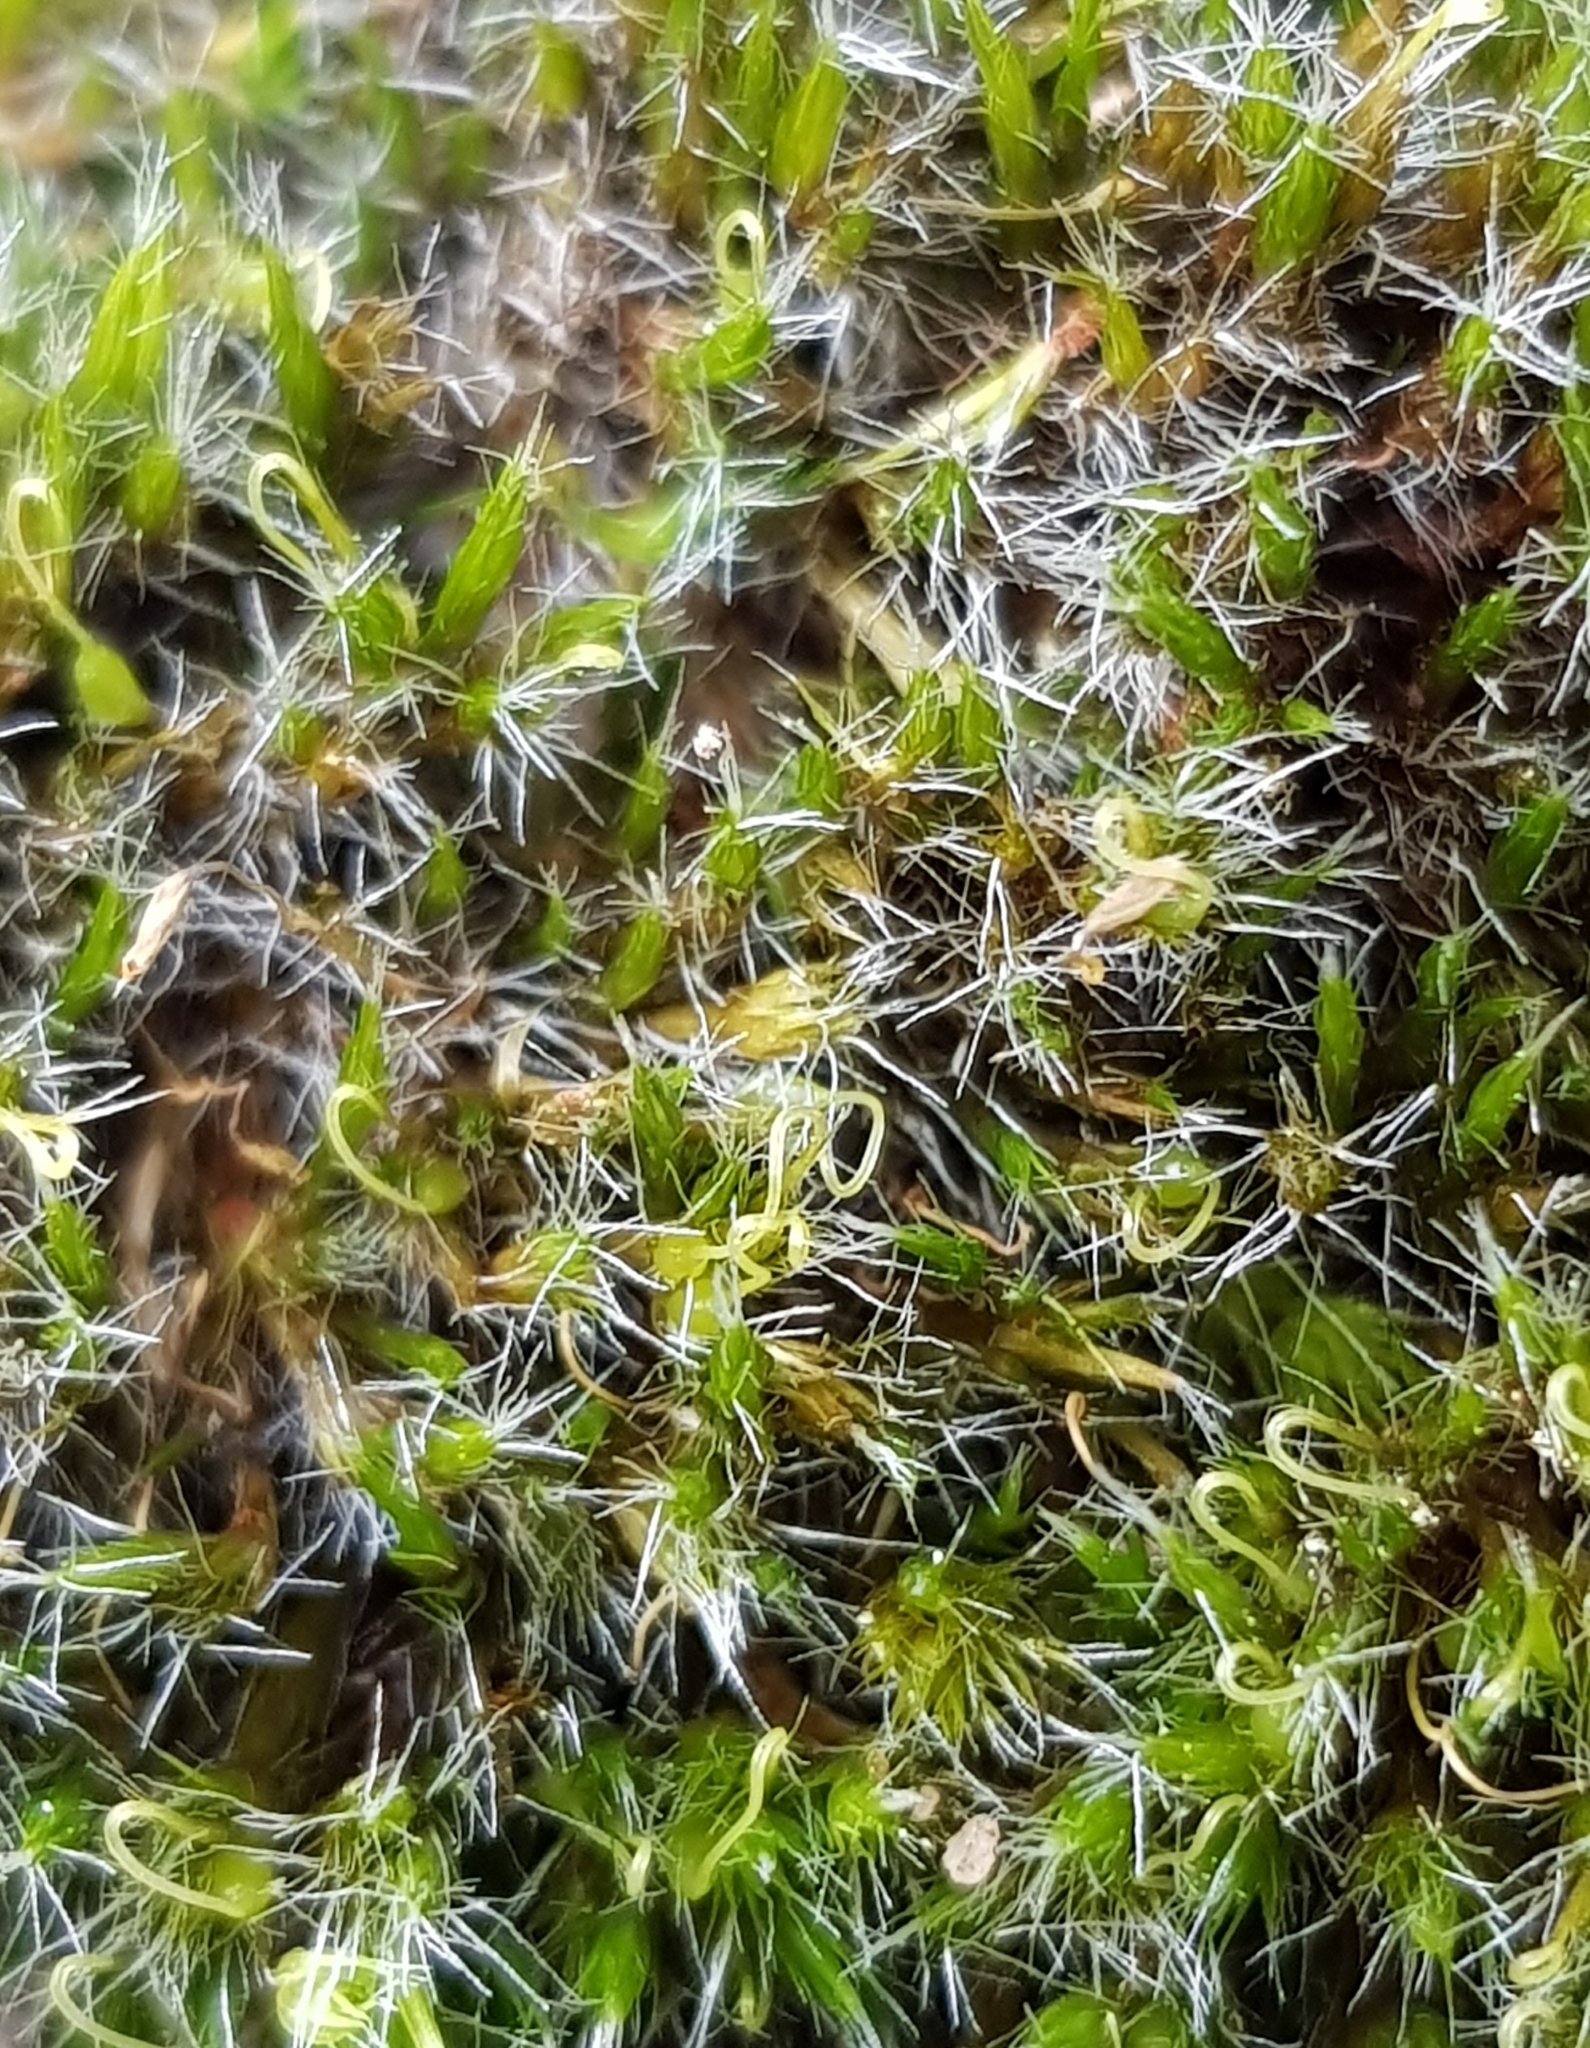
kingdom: Plantae
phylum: Bryophyta
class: Bryopsida
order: Dicranales
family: Leucobryaceae
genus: Campylopus
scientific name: Campylopus introflexus
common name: Heath star moss
